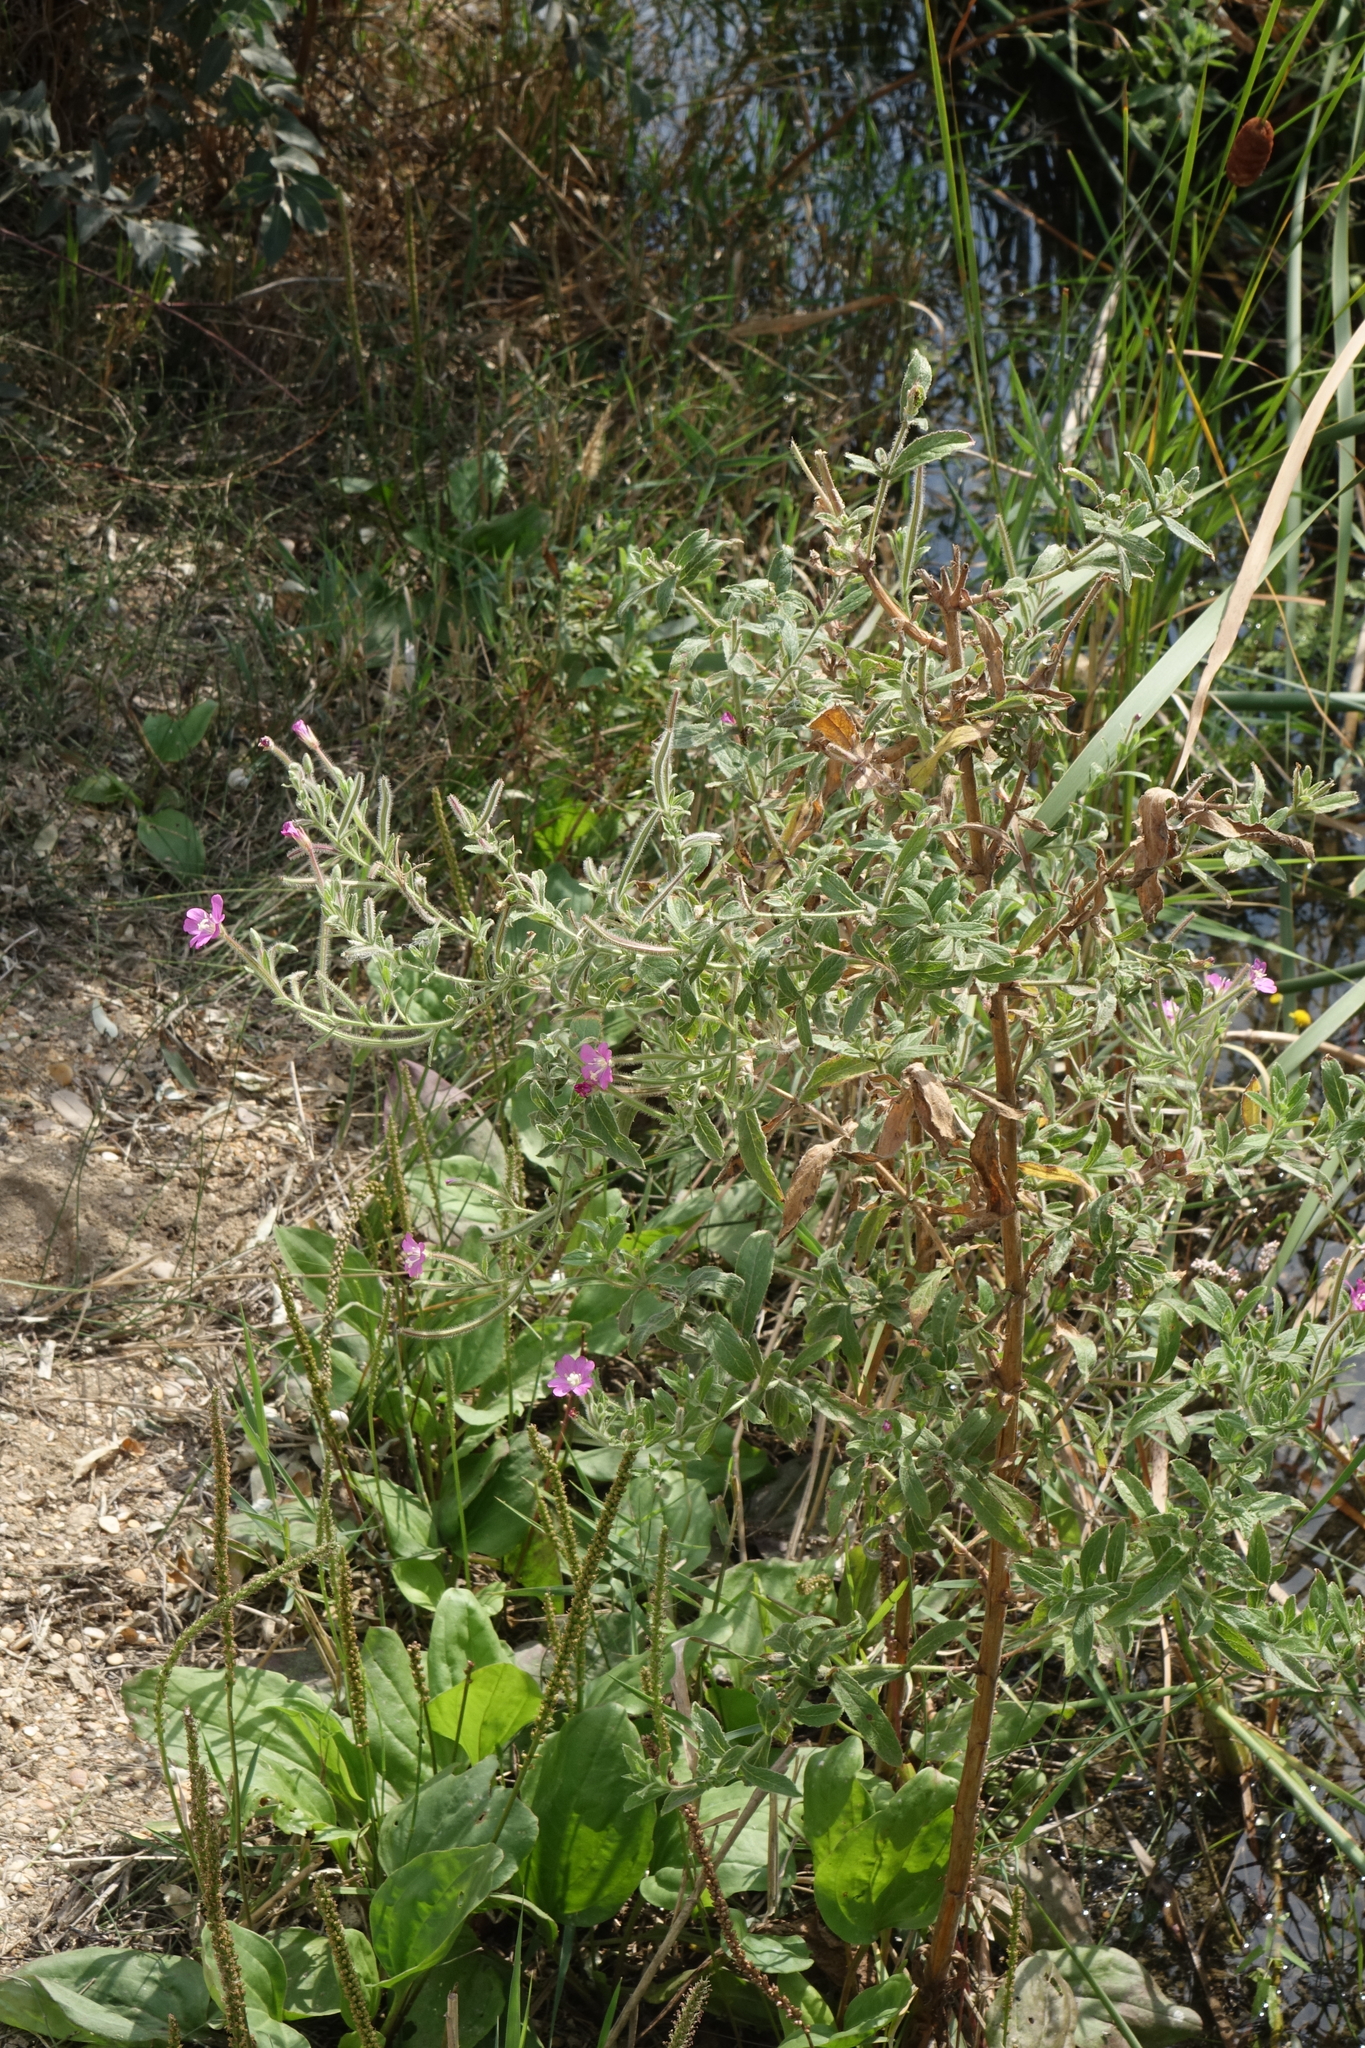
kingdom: Plantae
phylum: Tracheophyta
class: Magnoliopsida
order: Myrtales
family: Onagraceae
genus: Epilobium
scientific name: Epilobium hirsutum
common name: Great willowherb
